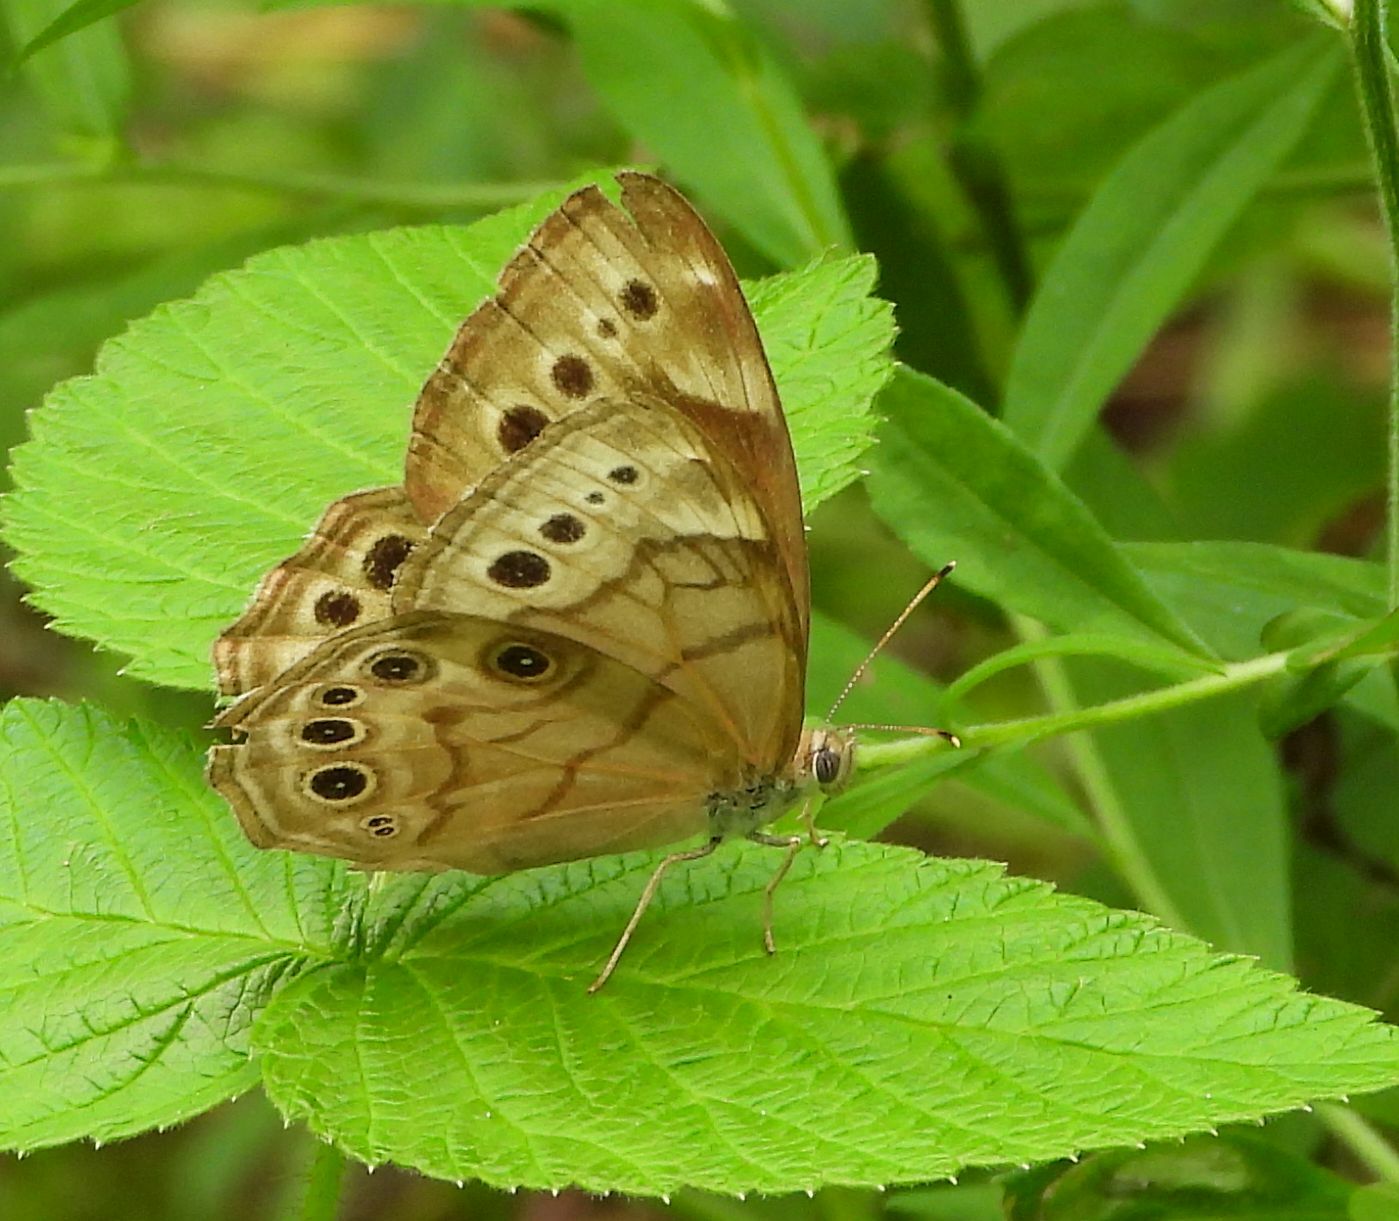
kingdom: Animalia
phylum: Arthropoda
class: Insecta
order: Lepidoptera
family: Nymphalidae
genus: Lethe
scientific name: Lethe anthedon
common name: Northern pearly-eye
